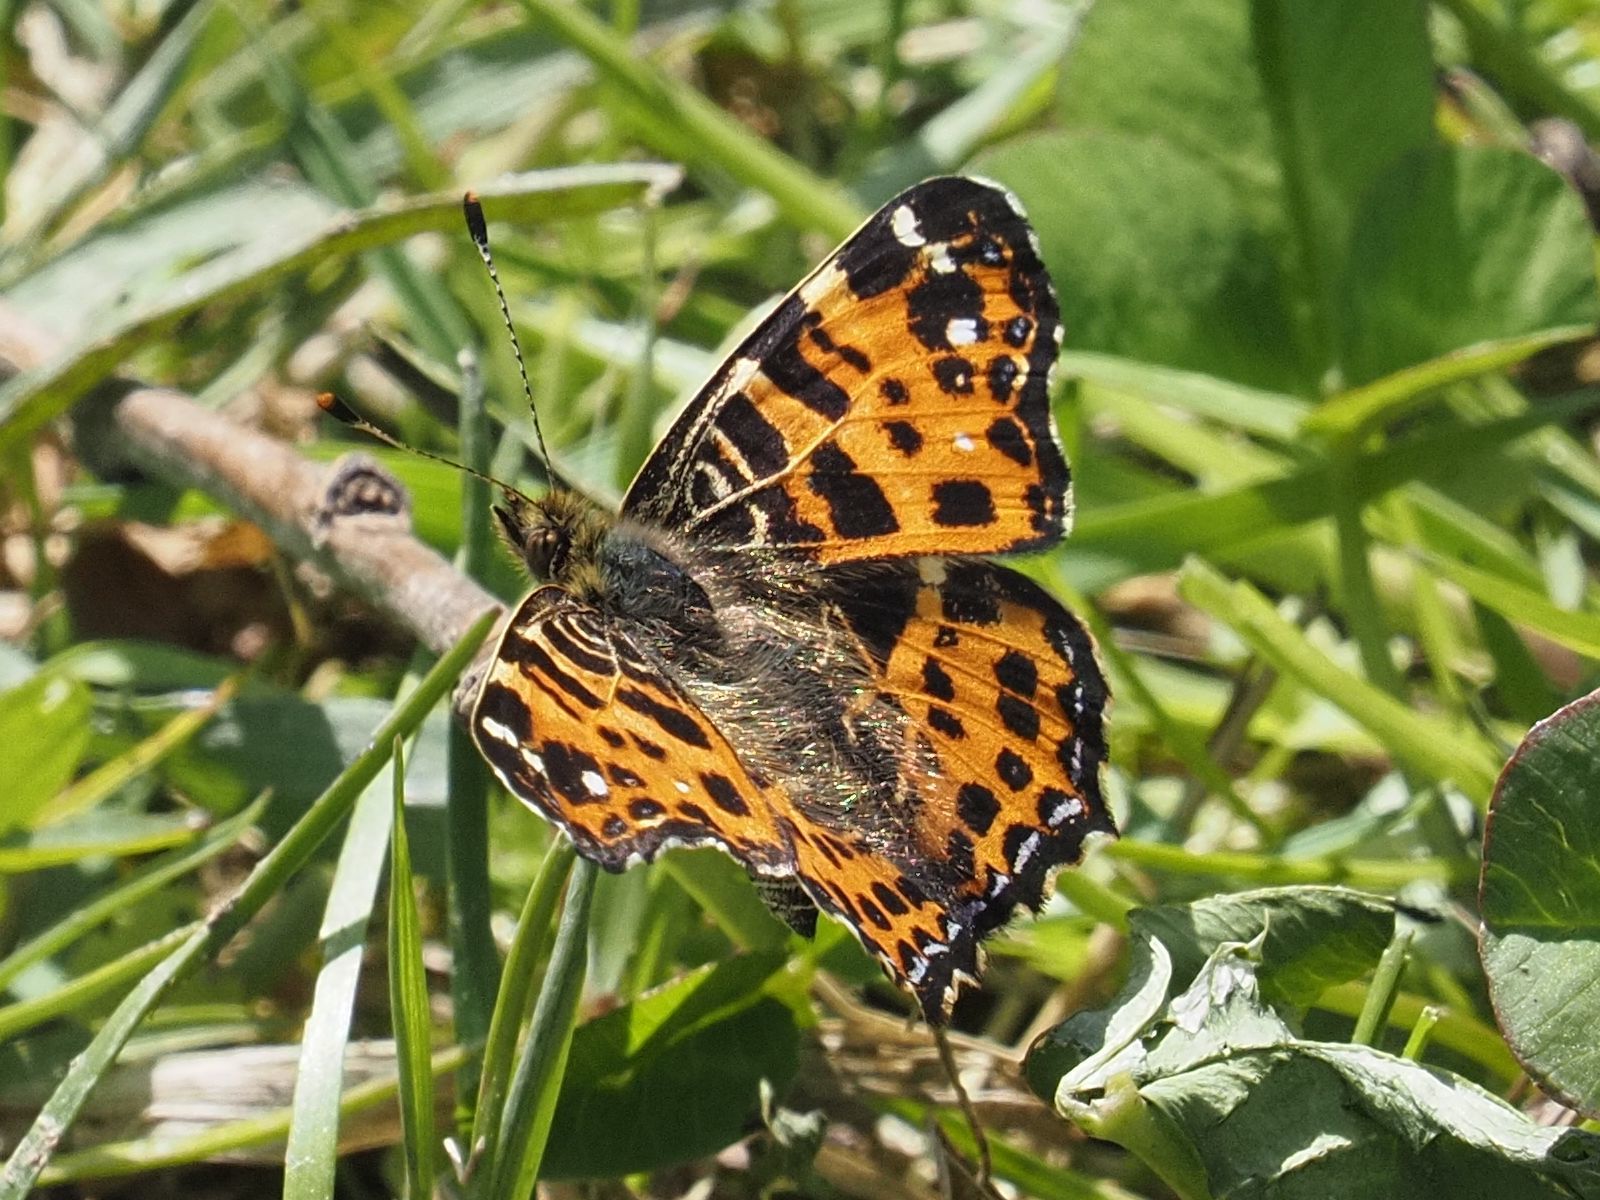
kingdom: Animalia
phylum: Arthropoda
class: Insecta
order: Lepidoptera
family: Nymphalidae
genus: Araschnia
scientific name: Araschnia levana
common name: Map butterfly
